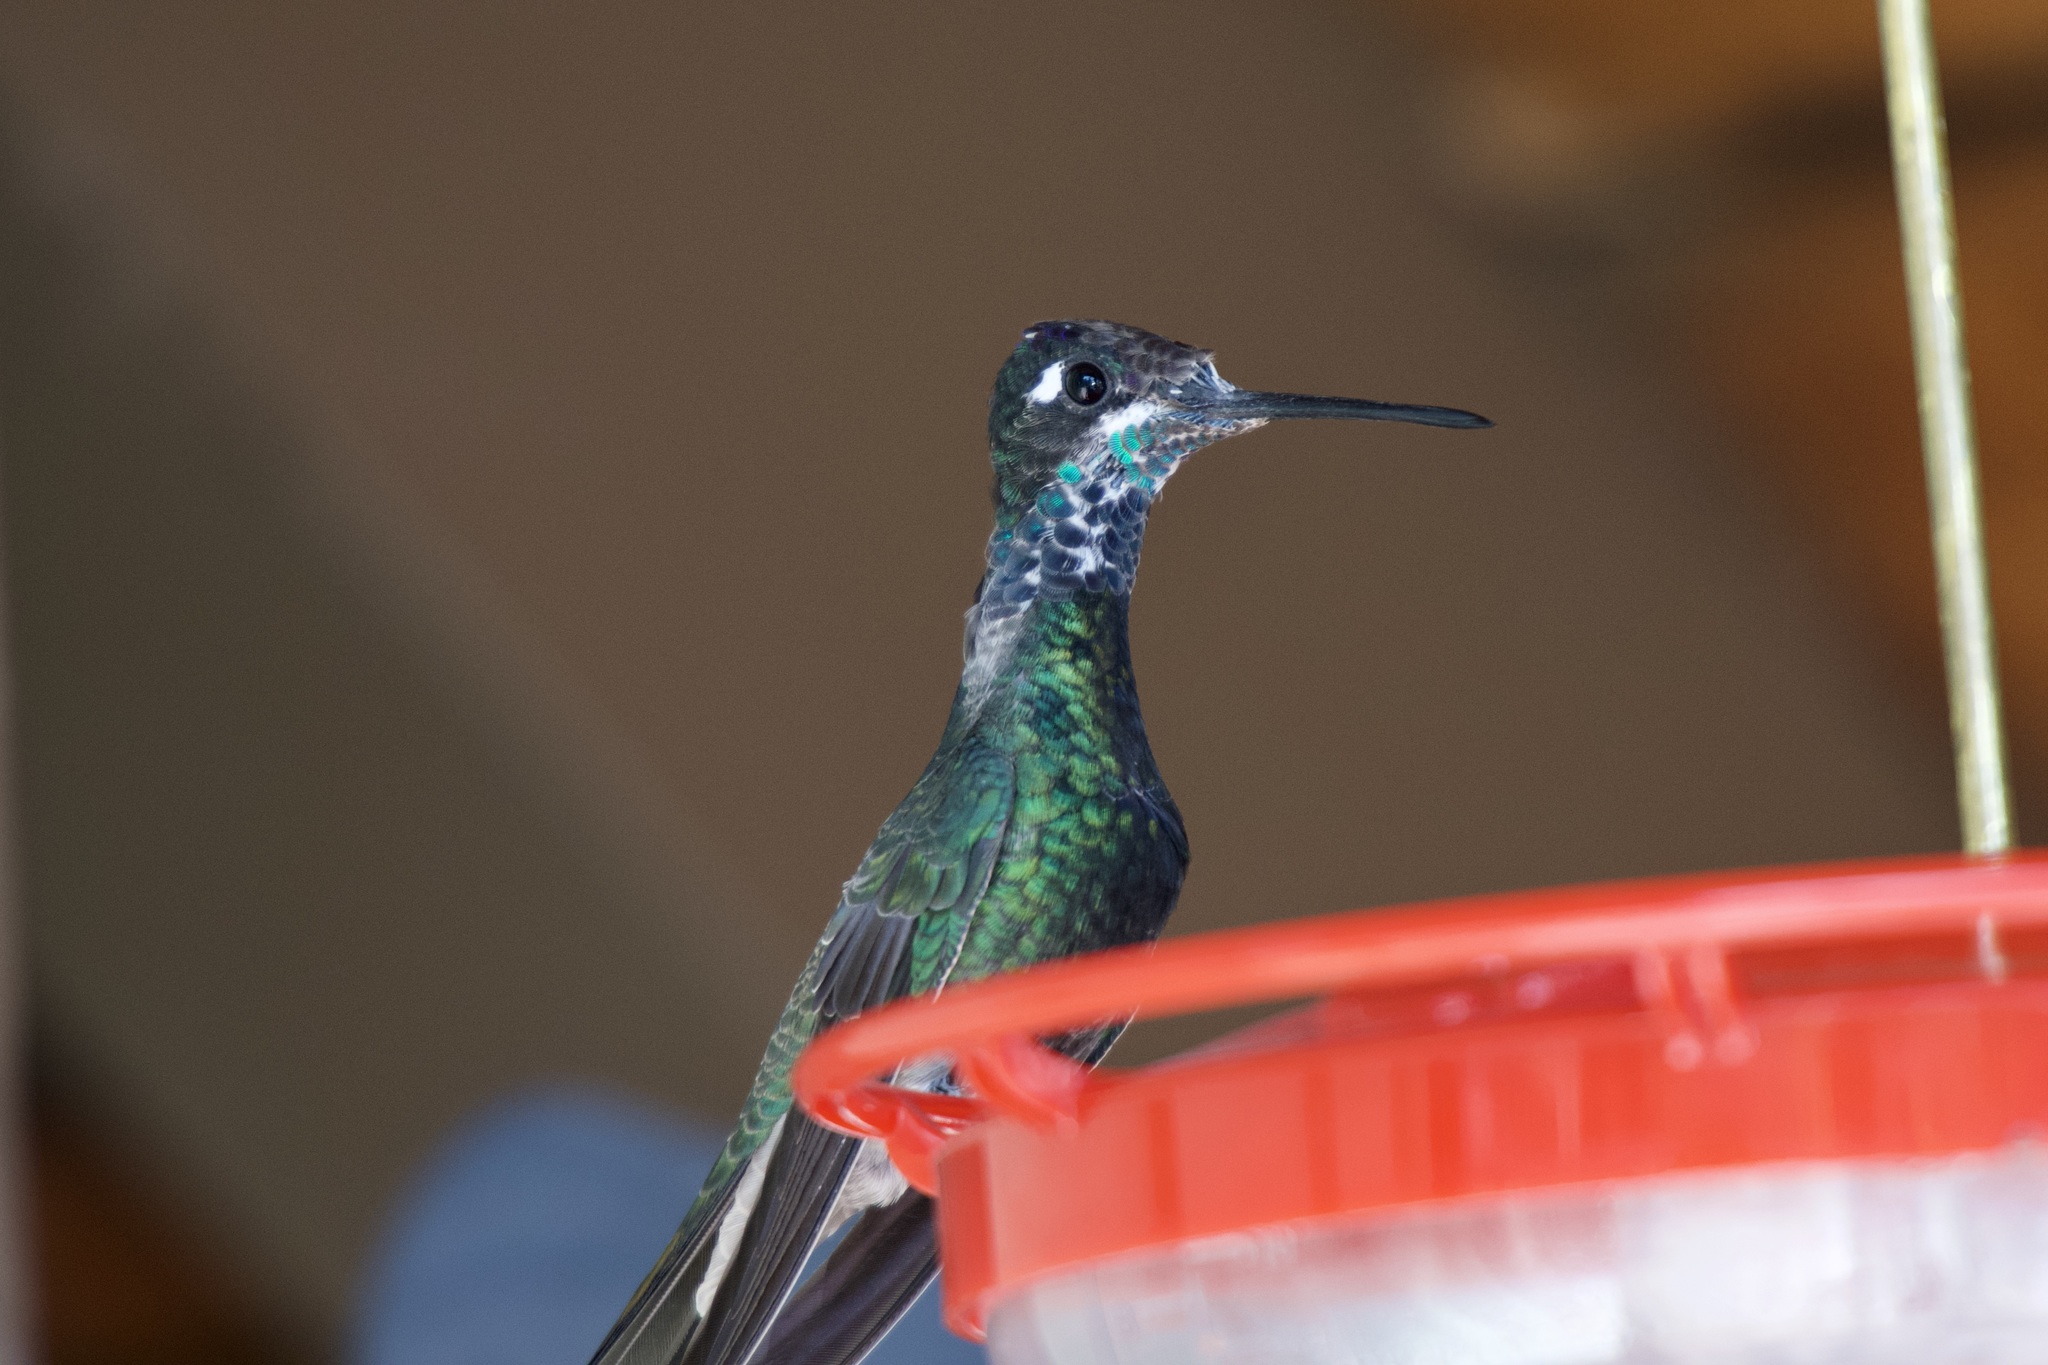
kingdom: Animalia
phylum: Chordata
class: Aves
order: Apodiformes
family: Trochilidae
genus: Eugenes
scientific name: Eugenes fulgens
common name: Magnificent hummingbird
